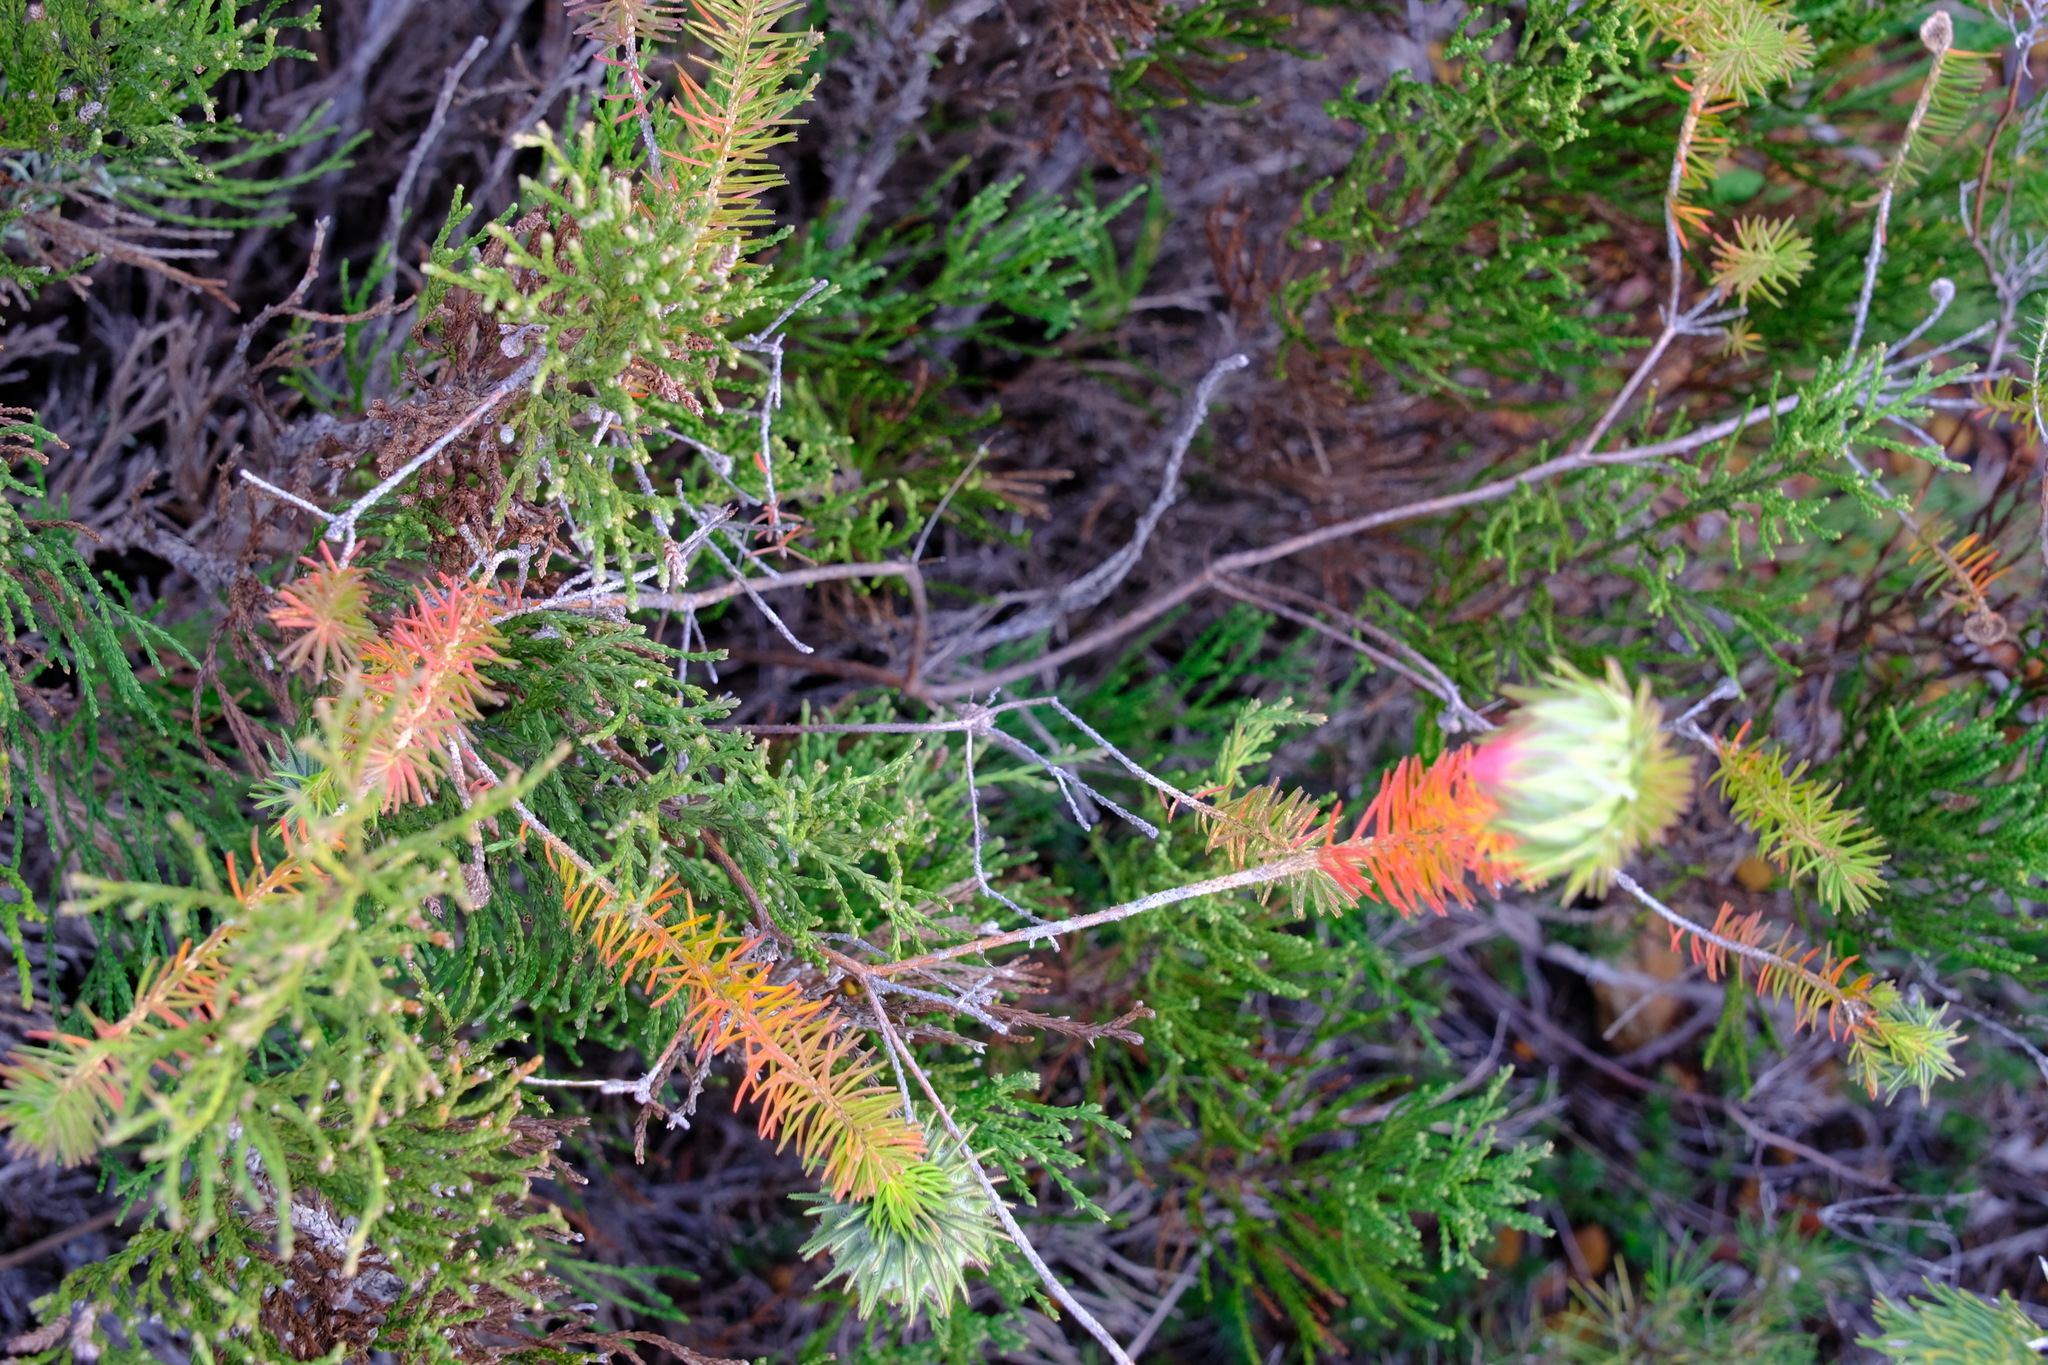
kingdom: Plantae
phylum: Tracheophyta
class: Magnoliopsida
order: Myrtales
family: Myrtaceae
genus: Darwinia
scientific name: Darwinia neildiana
